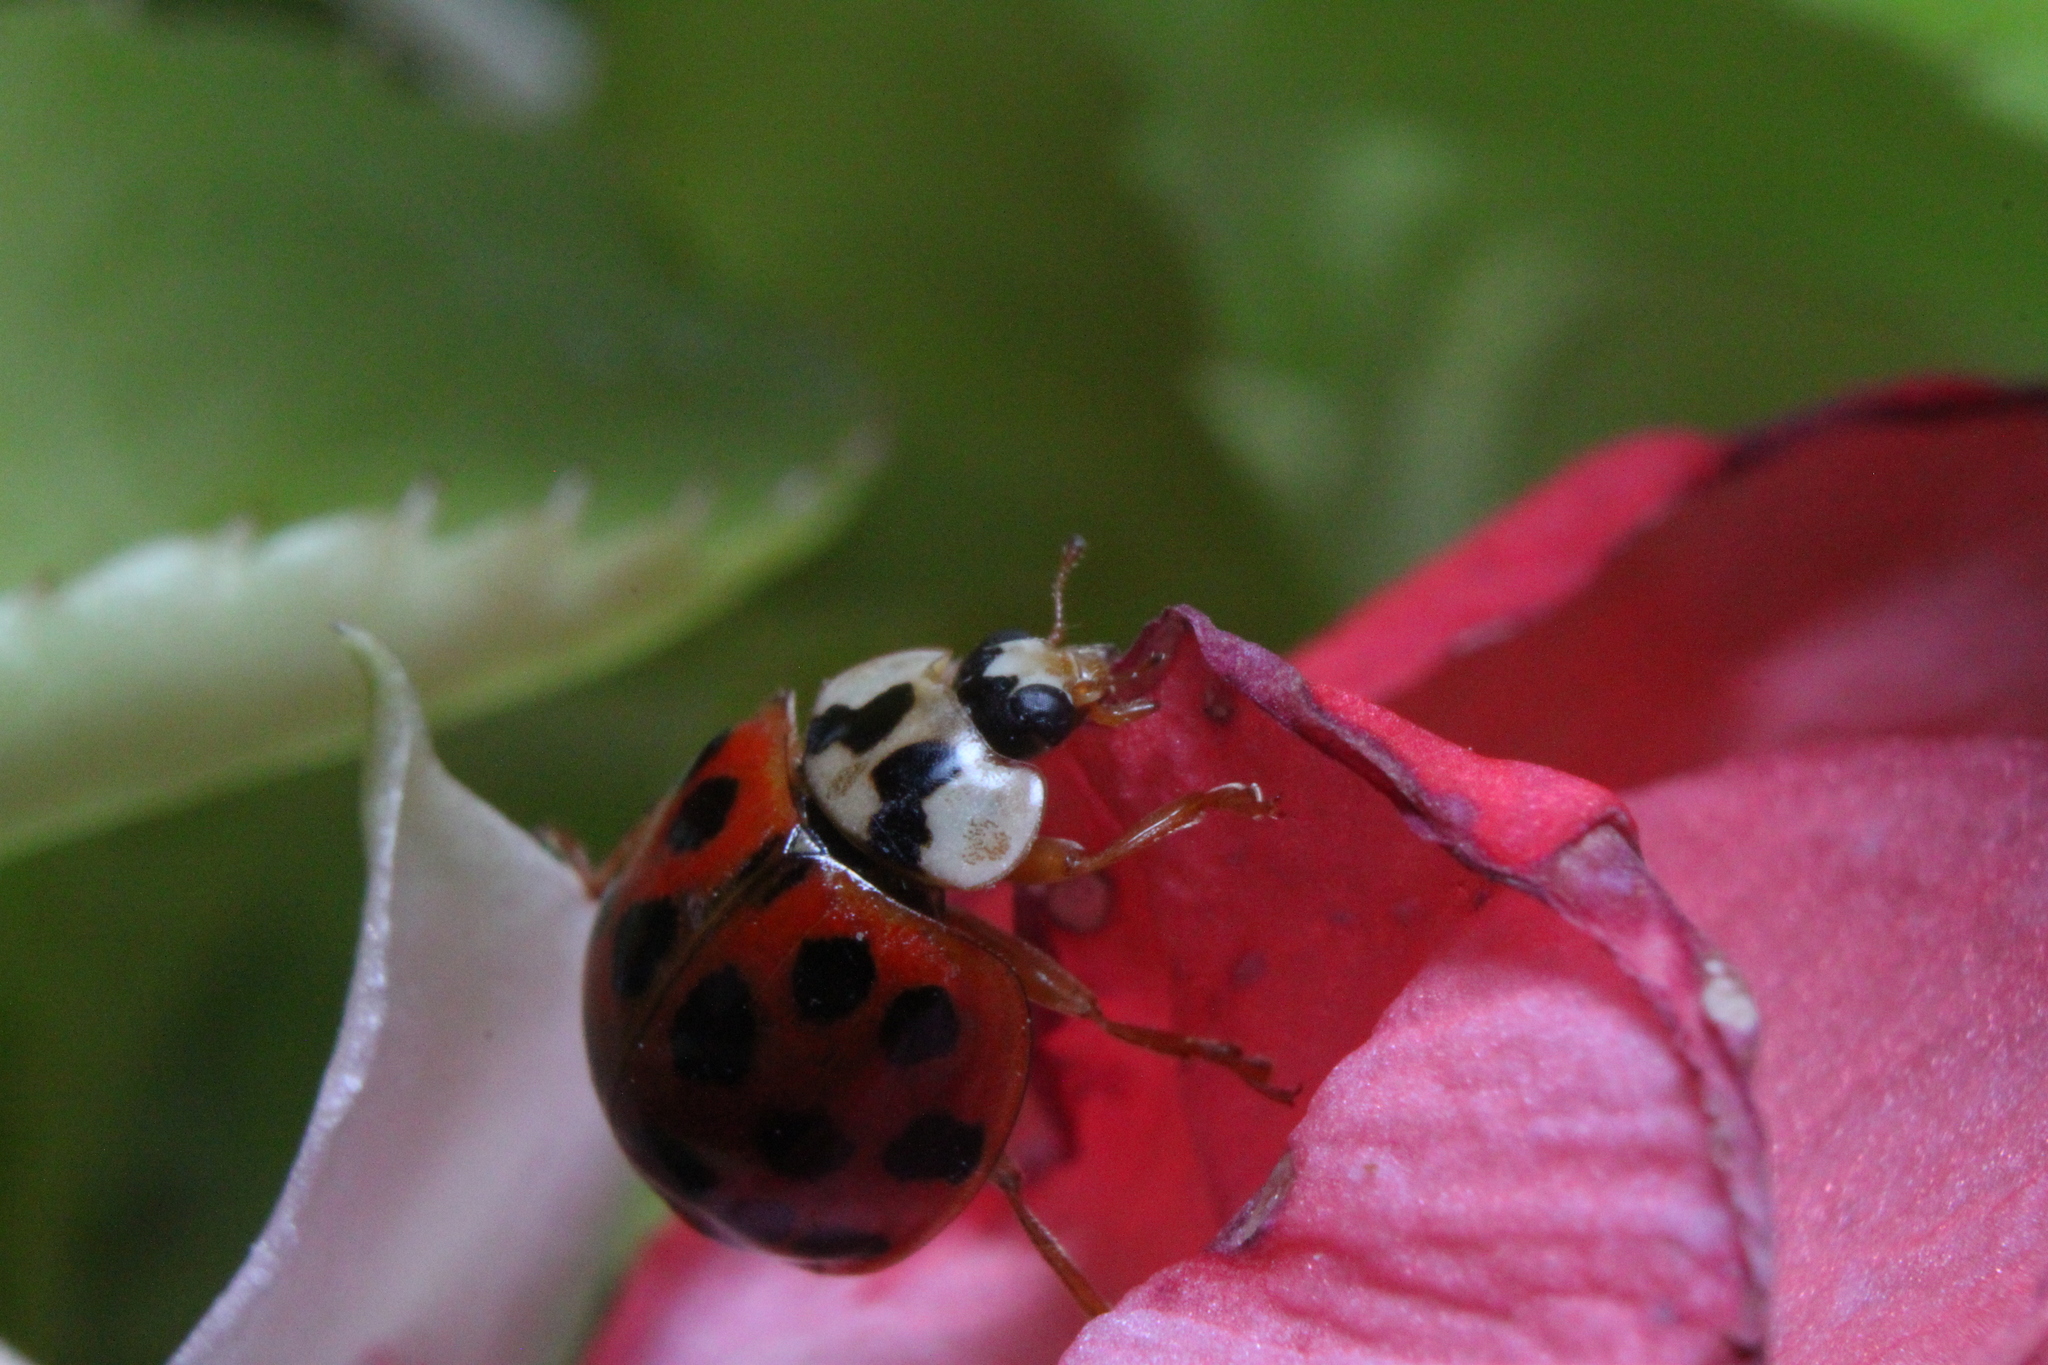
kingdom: Animalia
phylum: Arthropoda
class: Insecta
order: Coleoptera
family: Coccinellidae
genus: Harmonia
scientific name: Harmonia axyridis
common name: Harlequin ladybird
